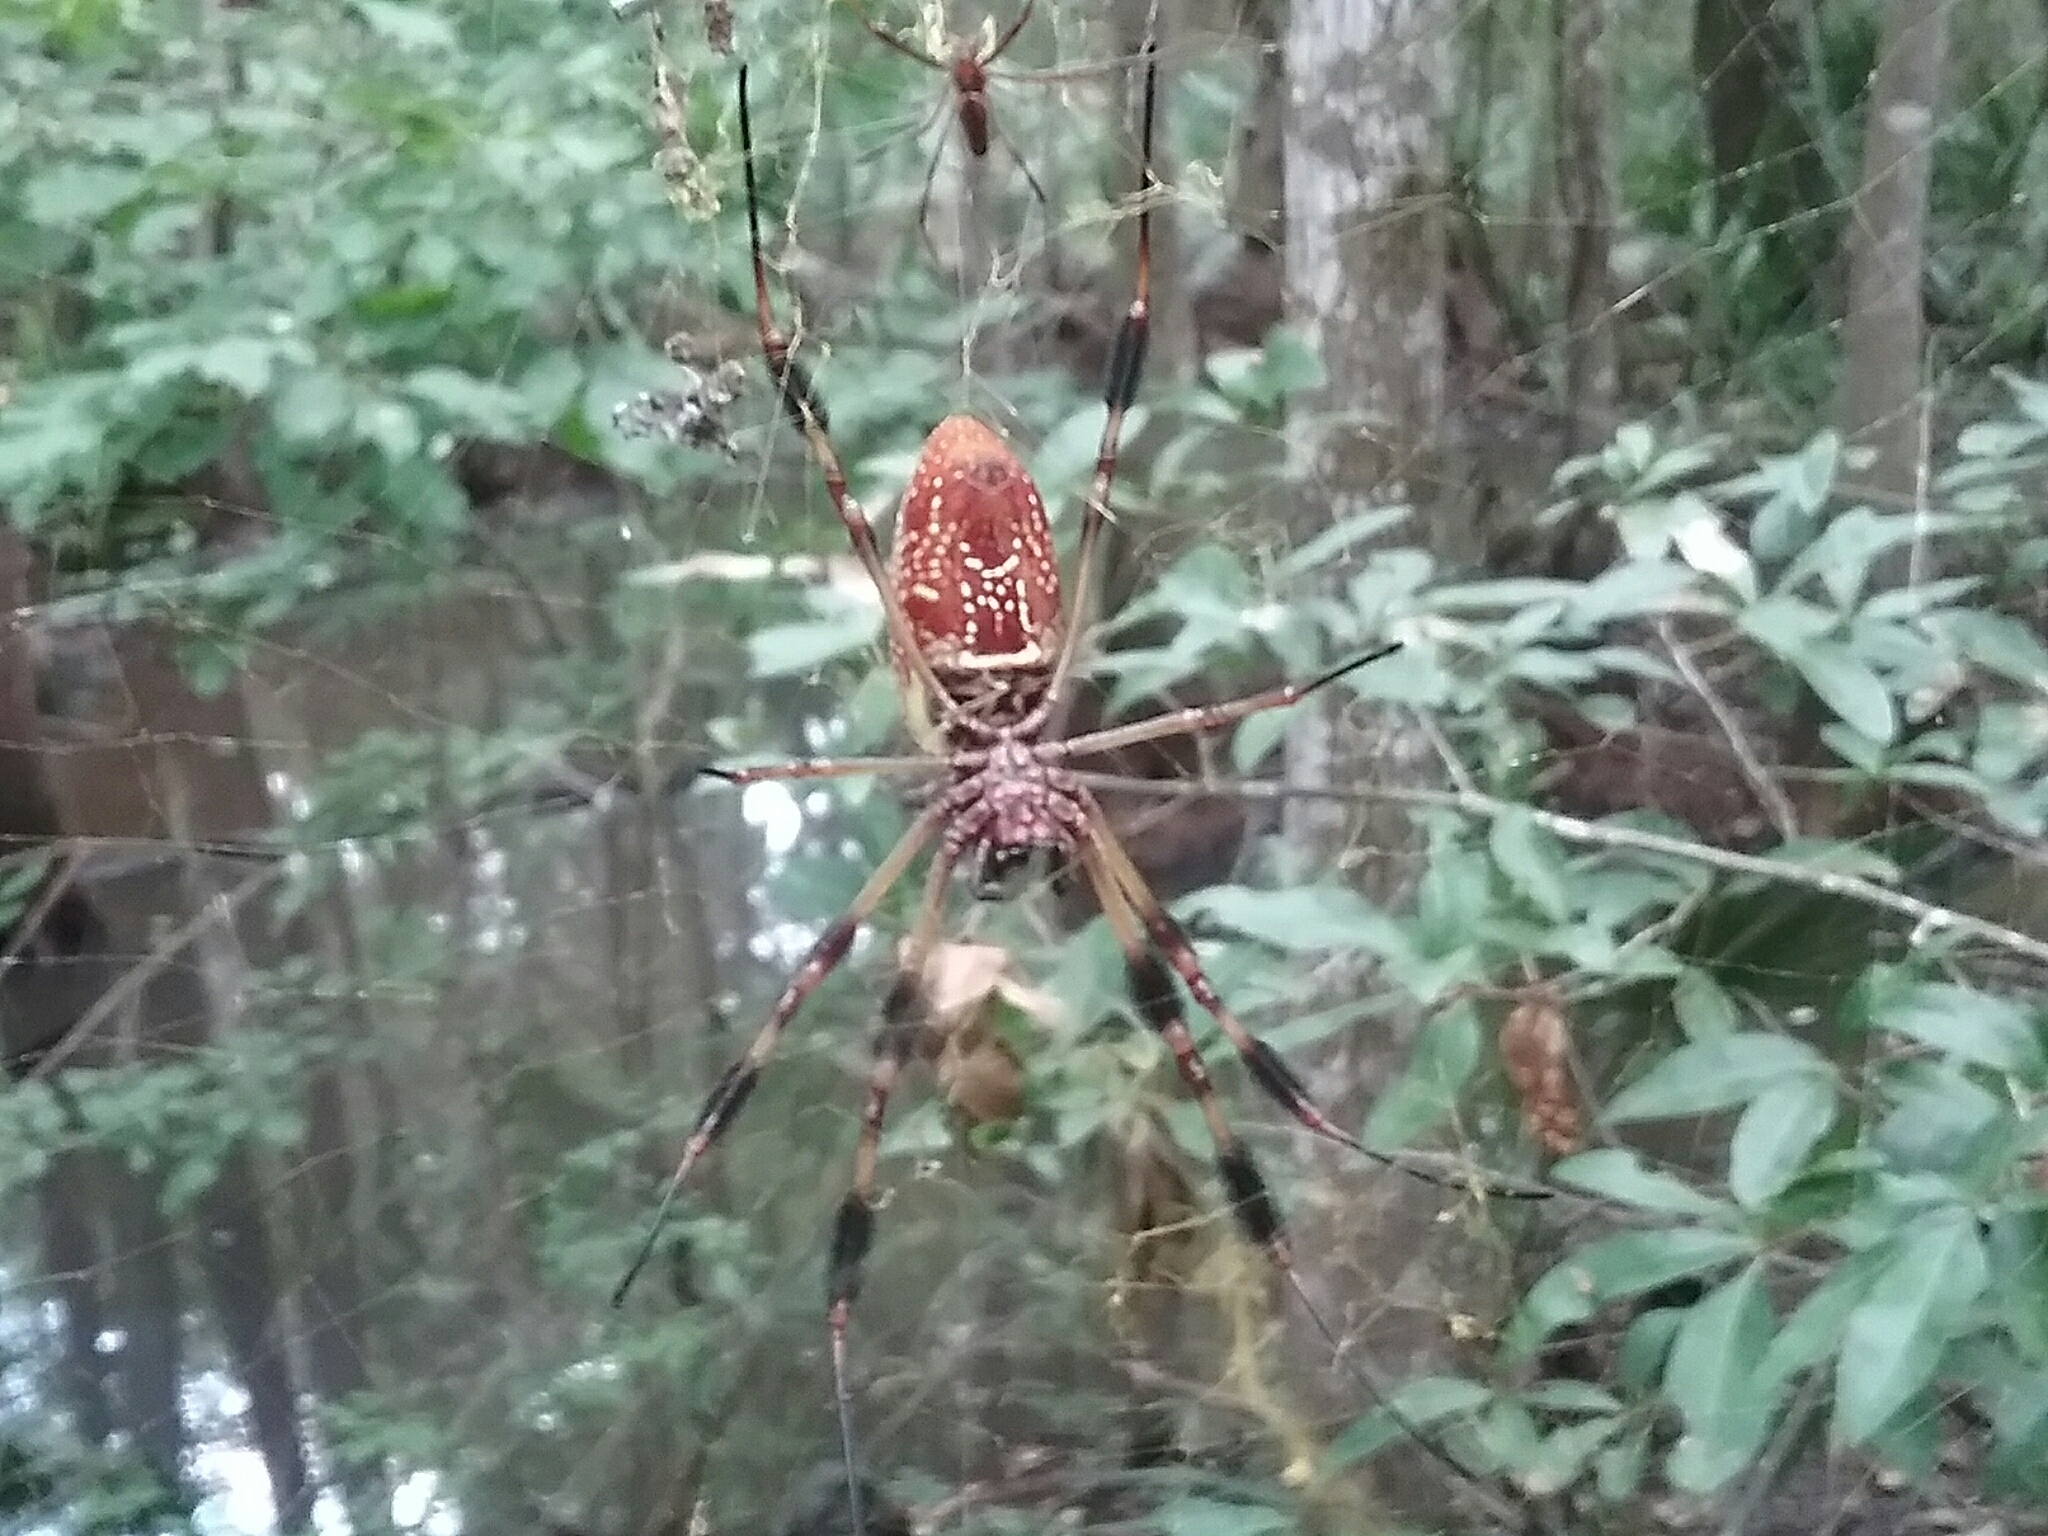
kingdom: Animalia
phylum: Arthropoda
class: Arachnida
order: Araneae
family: Araneidae
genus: Trichonephila
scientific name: Trichonephila clavipes
